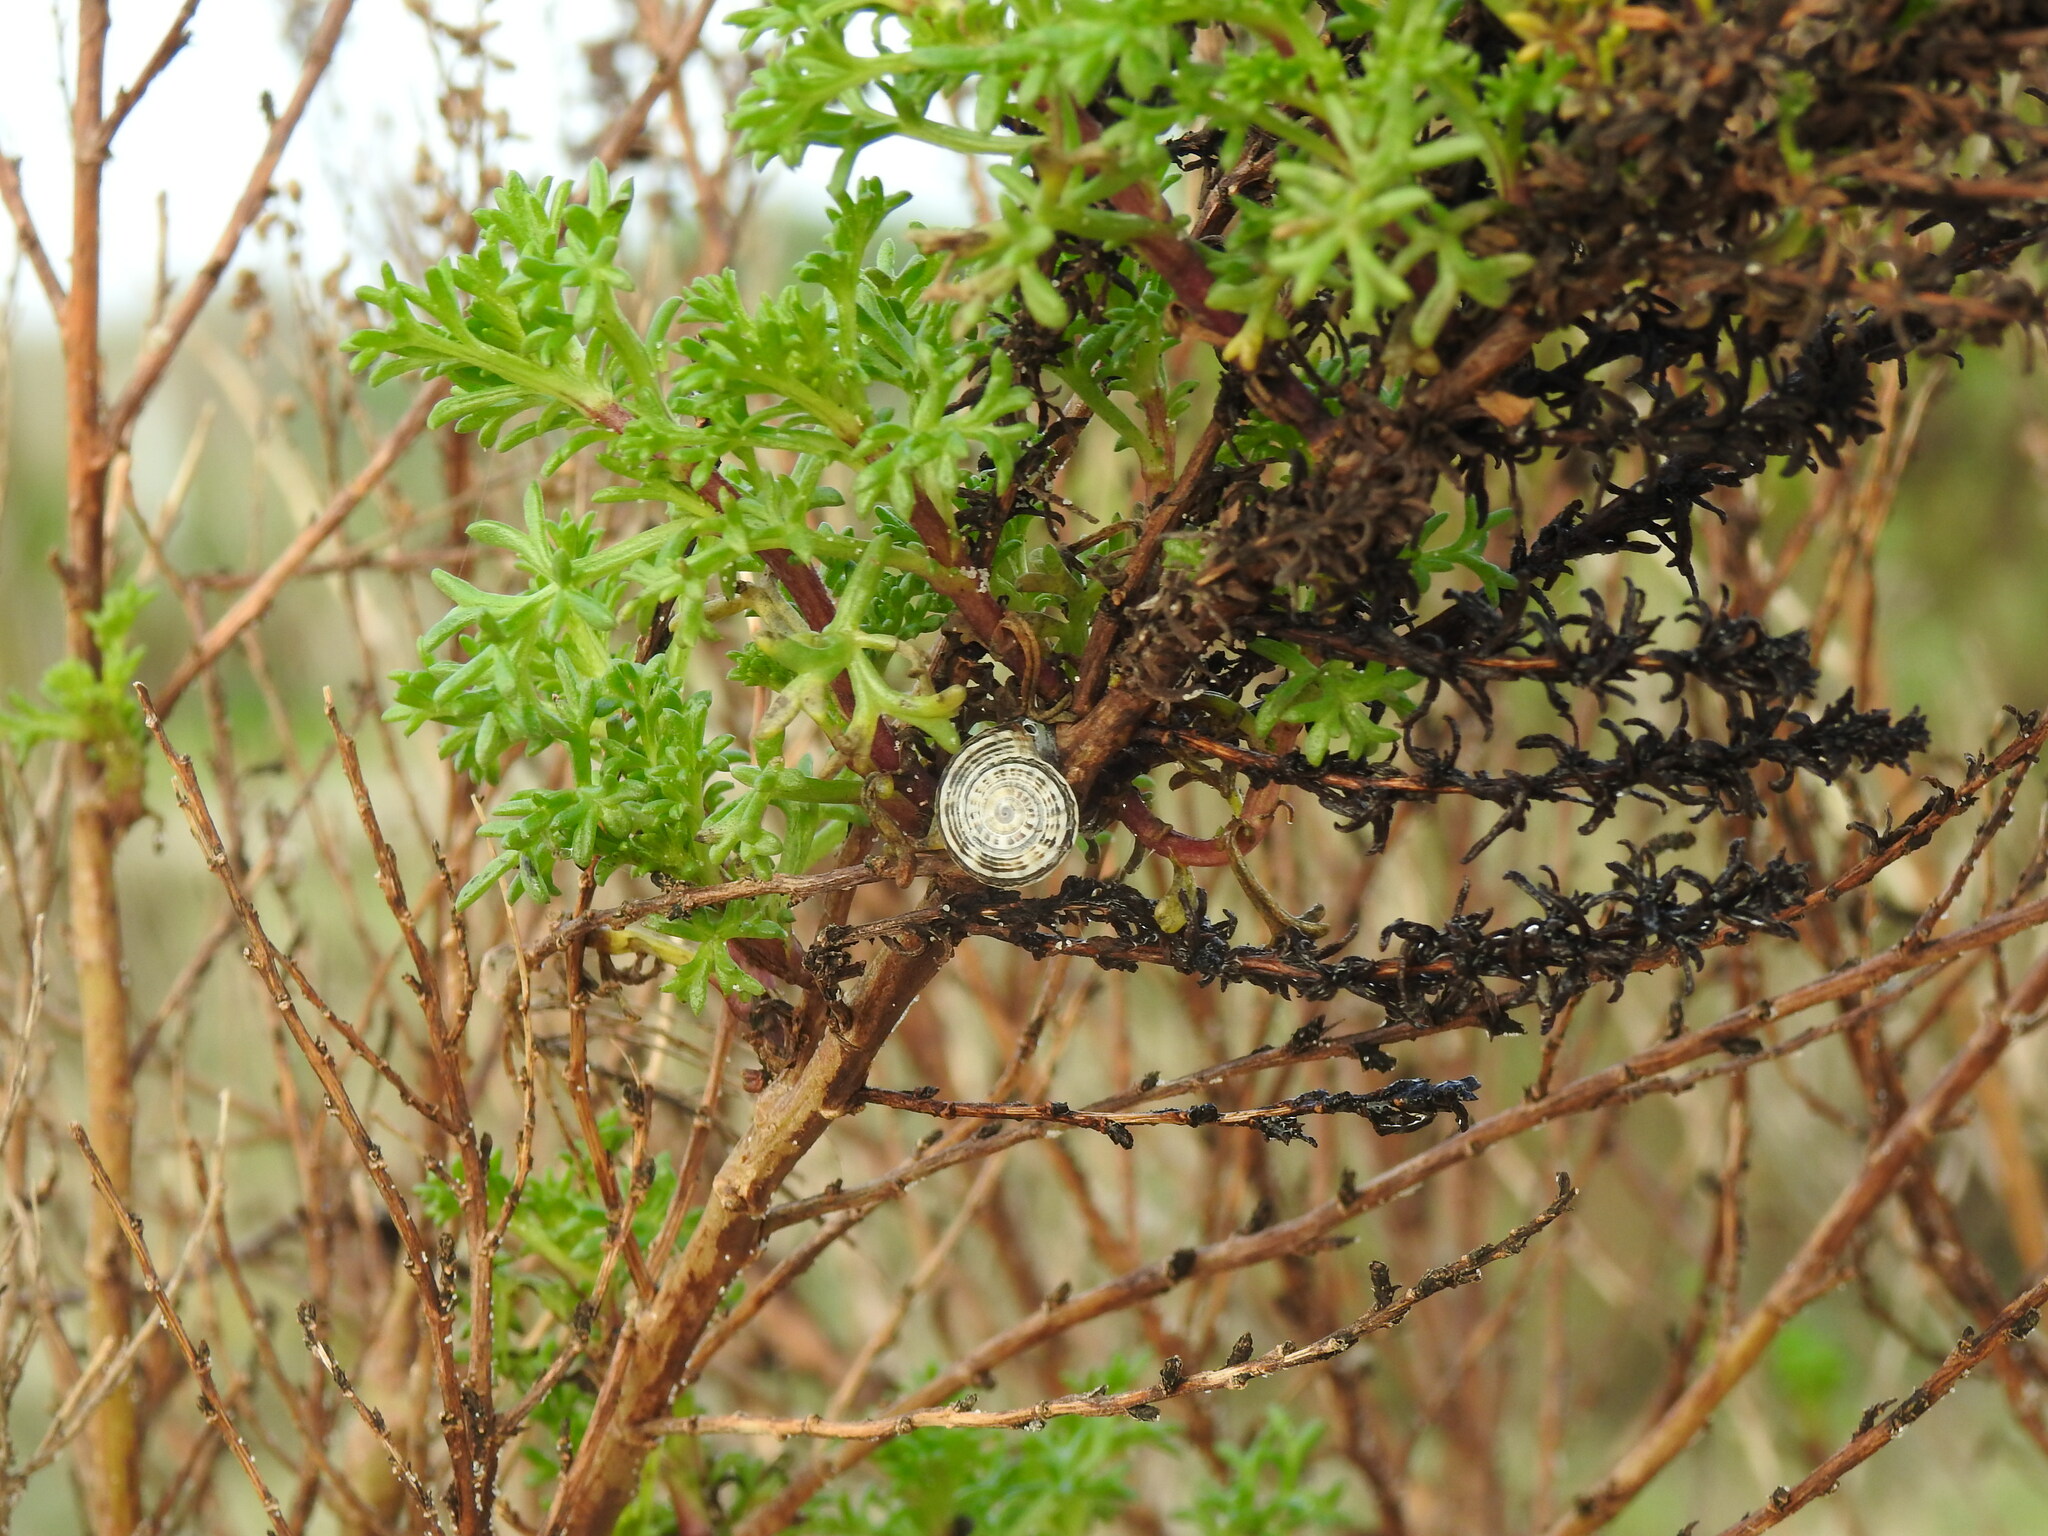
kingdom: Animalia
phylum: Mollusca
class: Gastropoda
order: Stylommatophora
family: Helicidae
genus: Theba
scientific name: Theba pisana
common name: White snail
